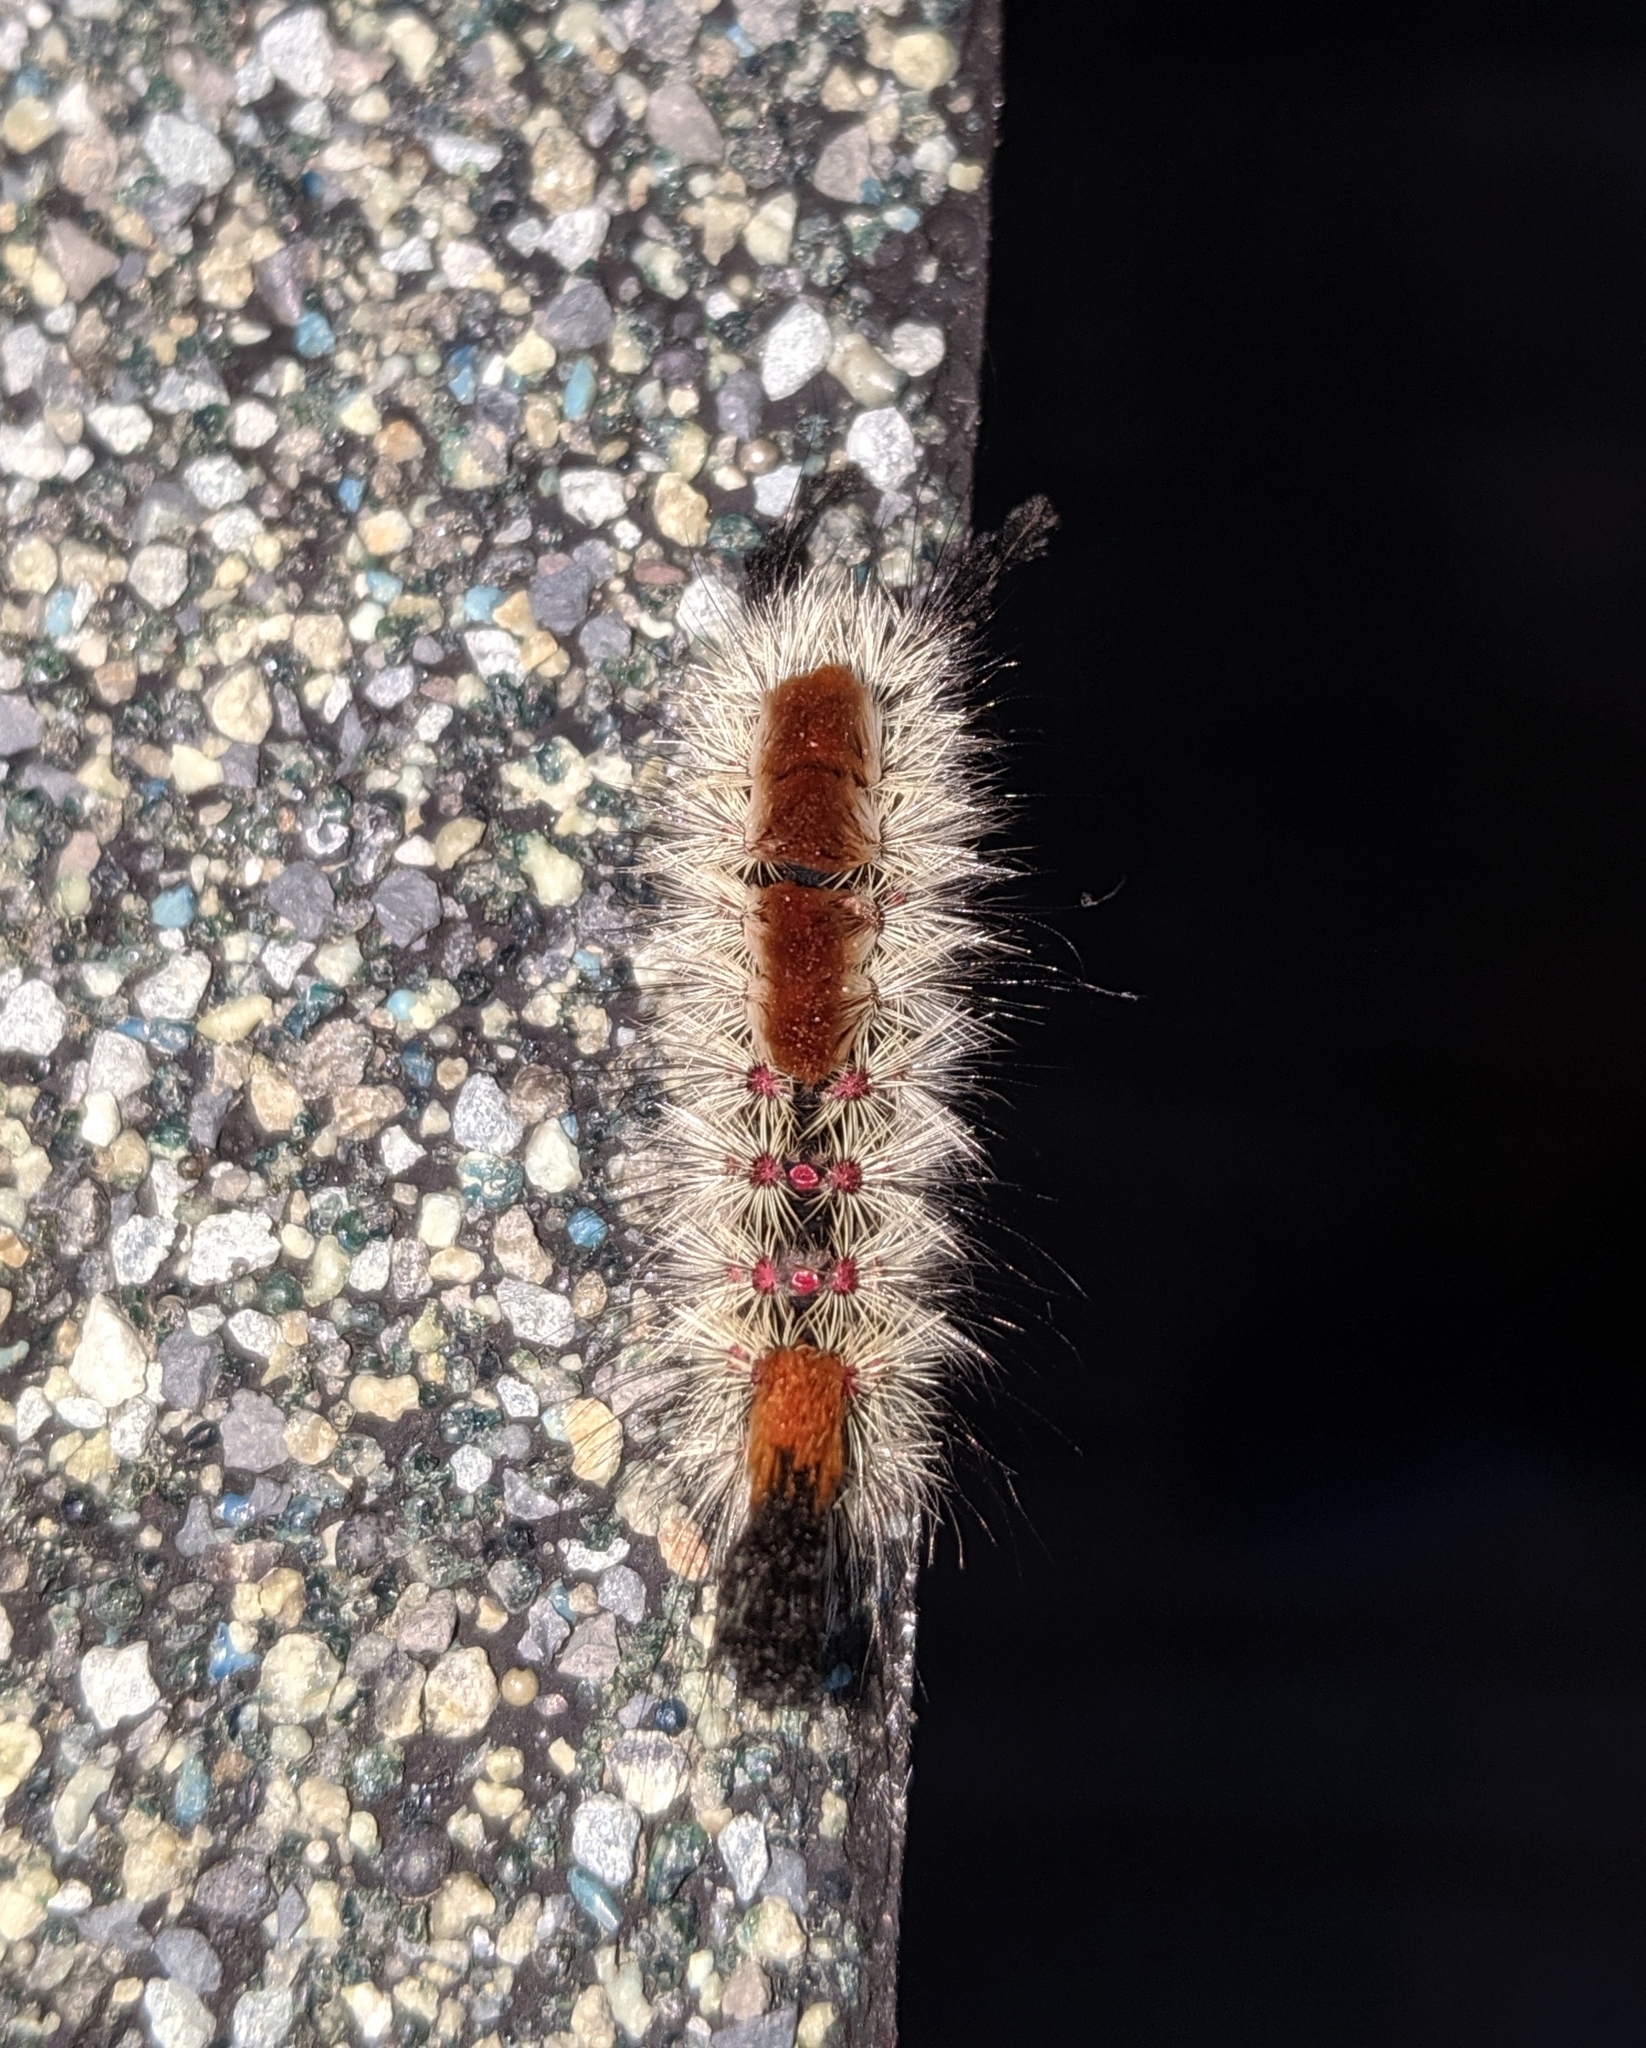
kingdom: Animalia
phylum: Arthropoda
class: Insecta
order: Lepidoptera
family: Erebidae
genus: Orgyia
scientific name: Orgyia pseudotsugata
